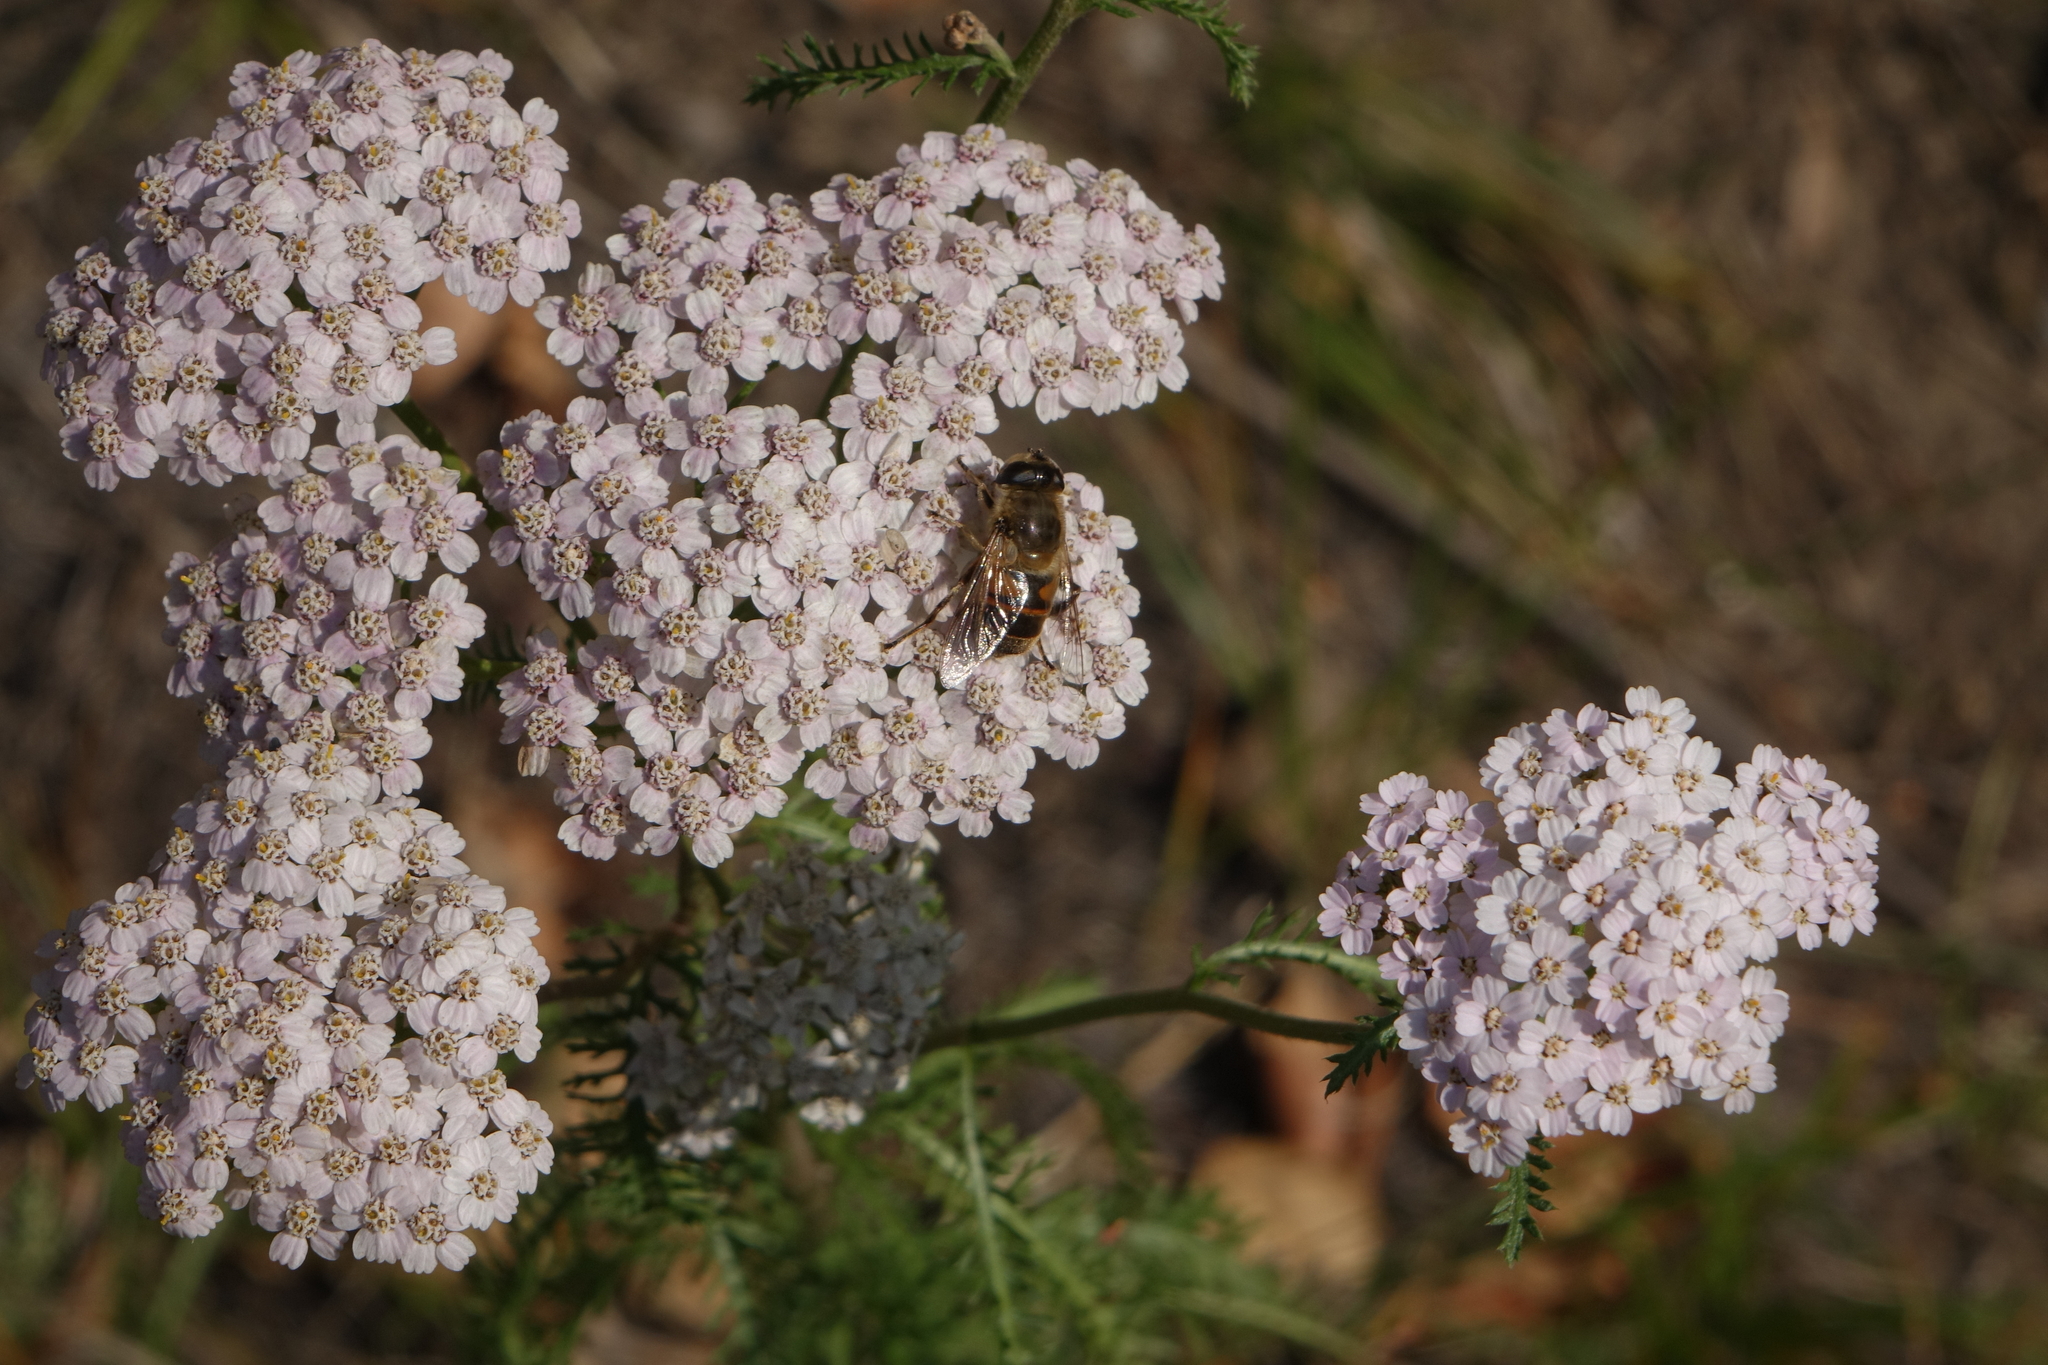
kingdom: Plantae
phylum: Tracheophyta
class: Magnoliopsida
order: Asterales
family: Asteraceae
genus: Achillea
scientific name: Achillea millefolium
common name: Yarrow
